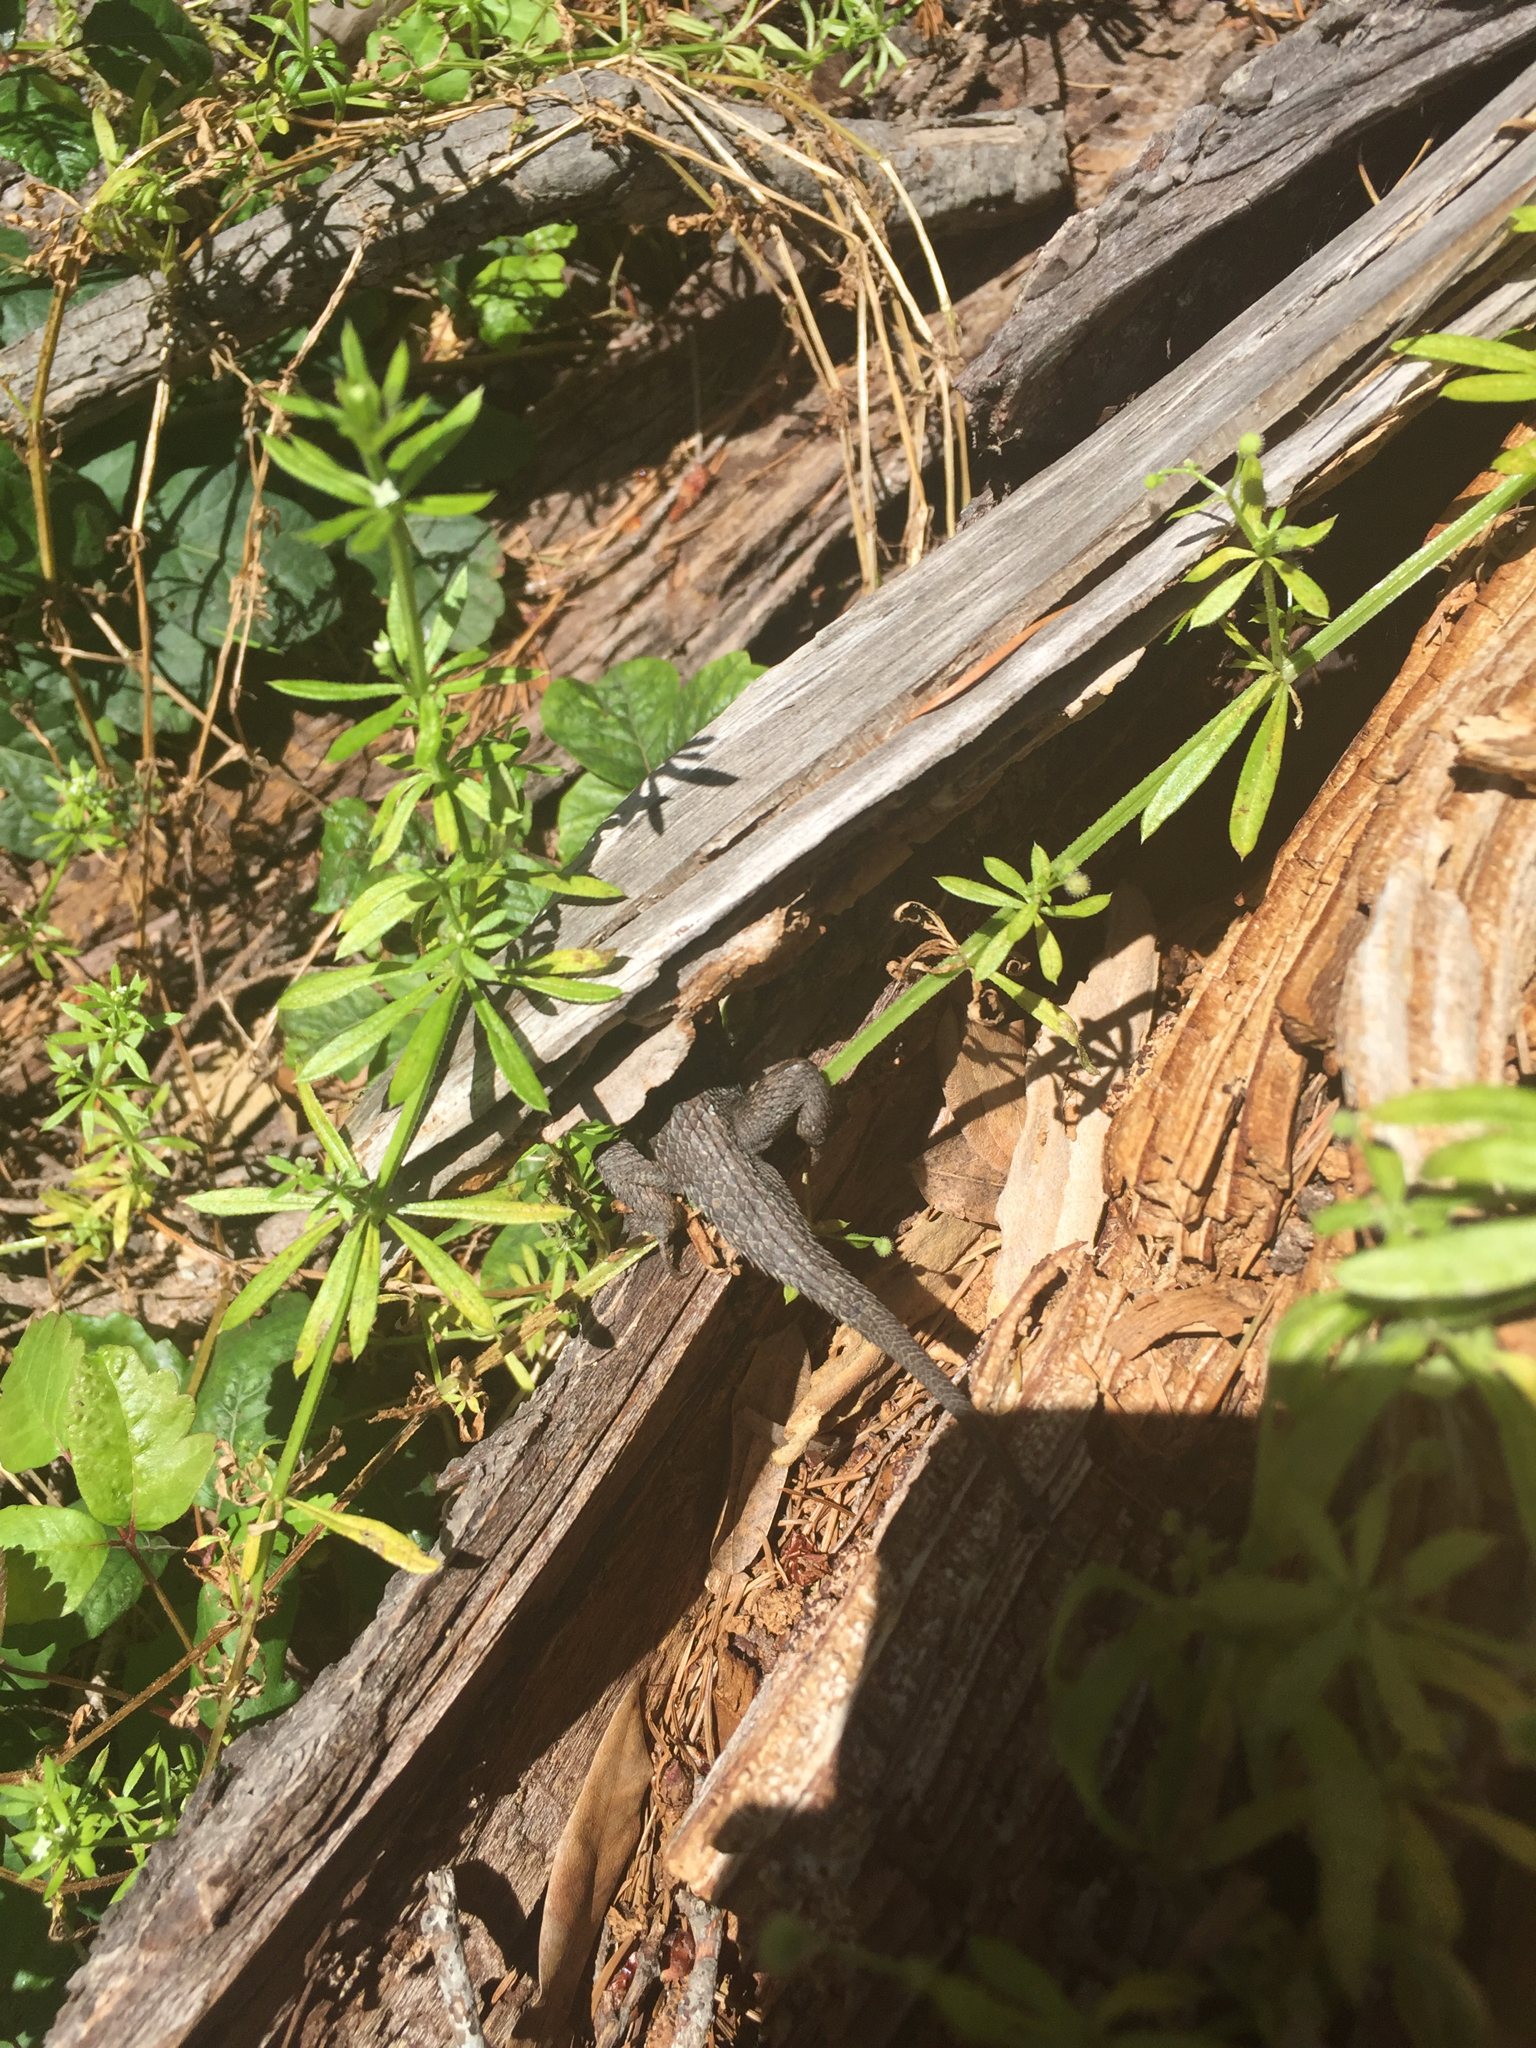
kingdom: Animalia
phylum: Chordata
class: Squamata
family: Phrynosomatidae
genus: Sceloporus
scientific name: Sceloporus occidentalis
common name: Western fence lizard
